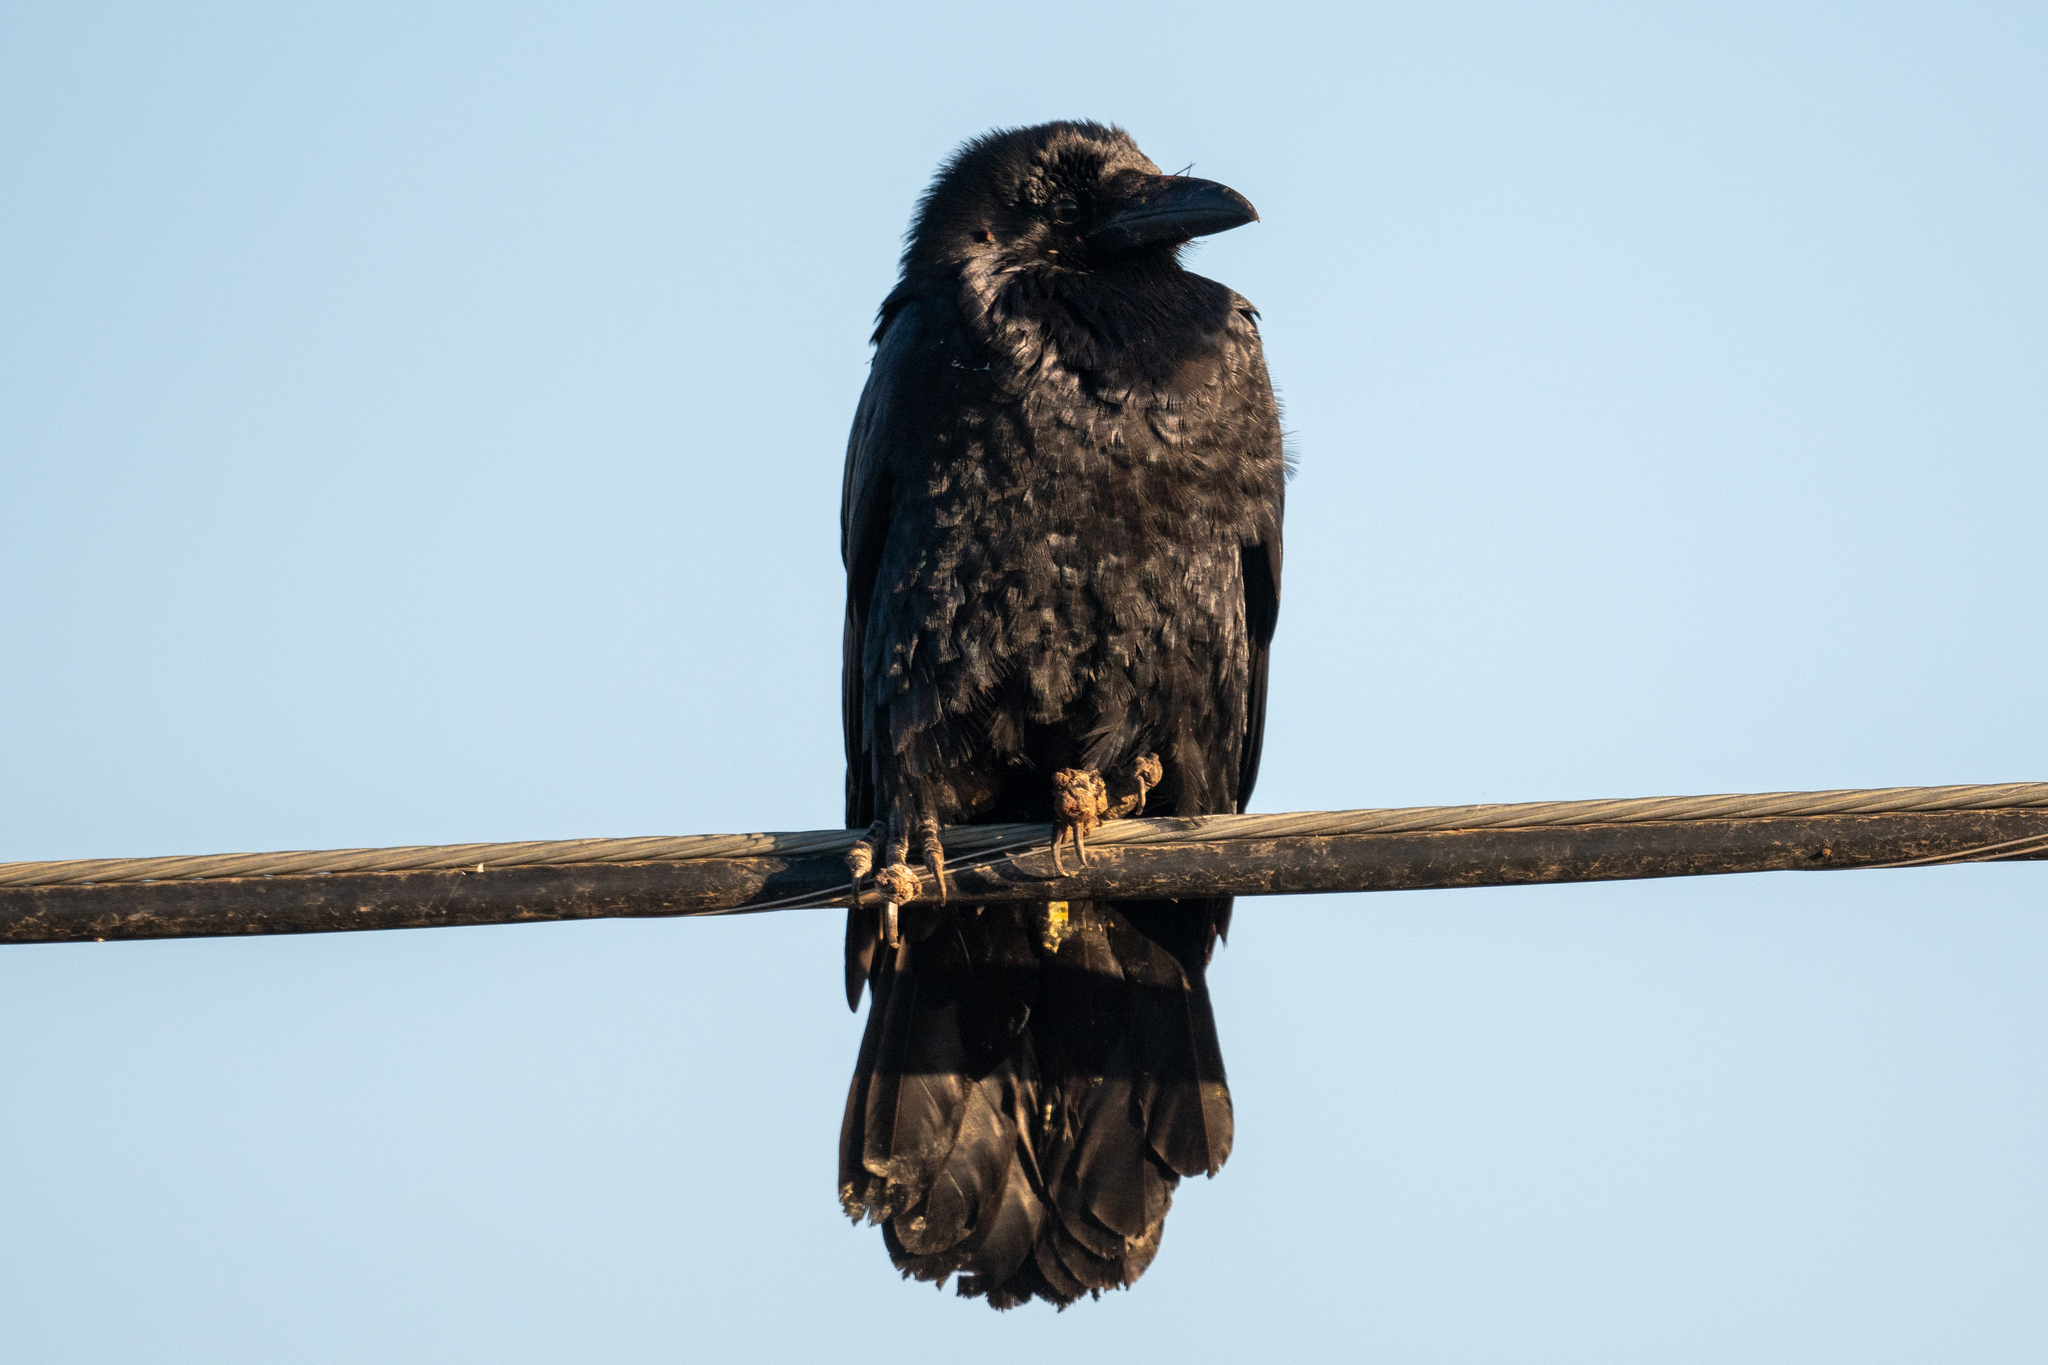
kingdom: Animalia
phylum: Chordata
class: Aves
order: Passeriformes
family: Corvidae
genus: Corvus
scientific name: Corvus corax
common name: Common raven
